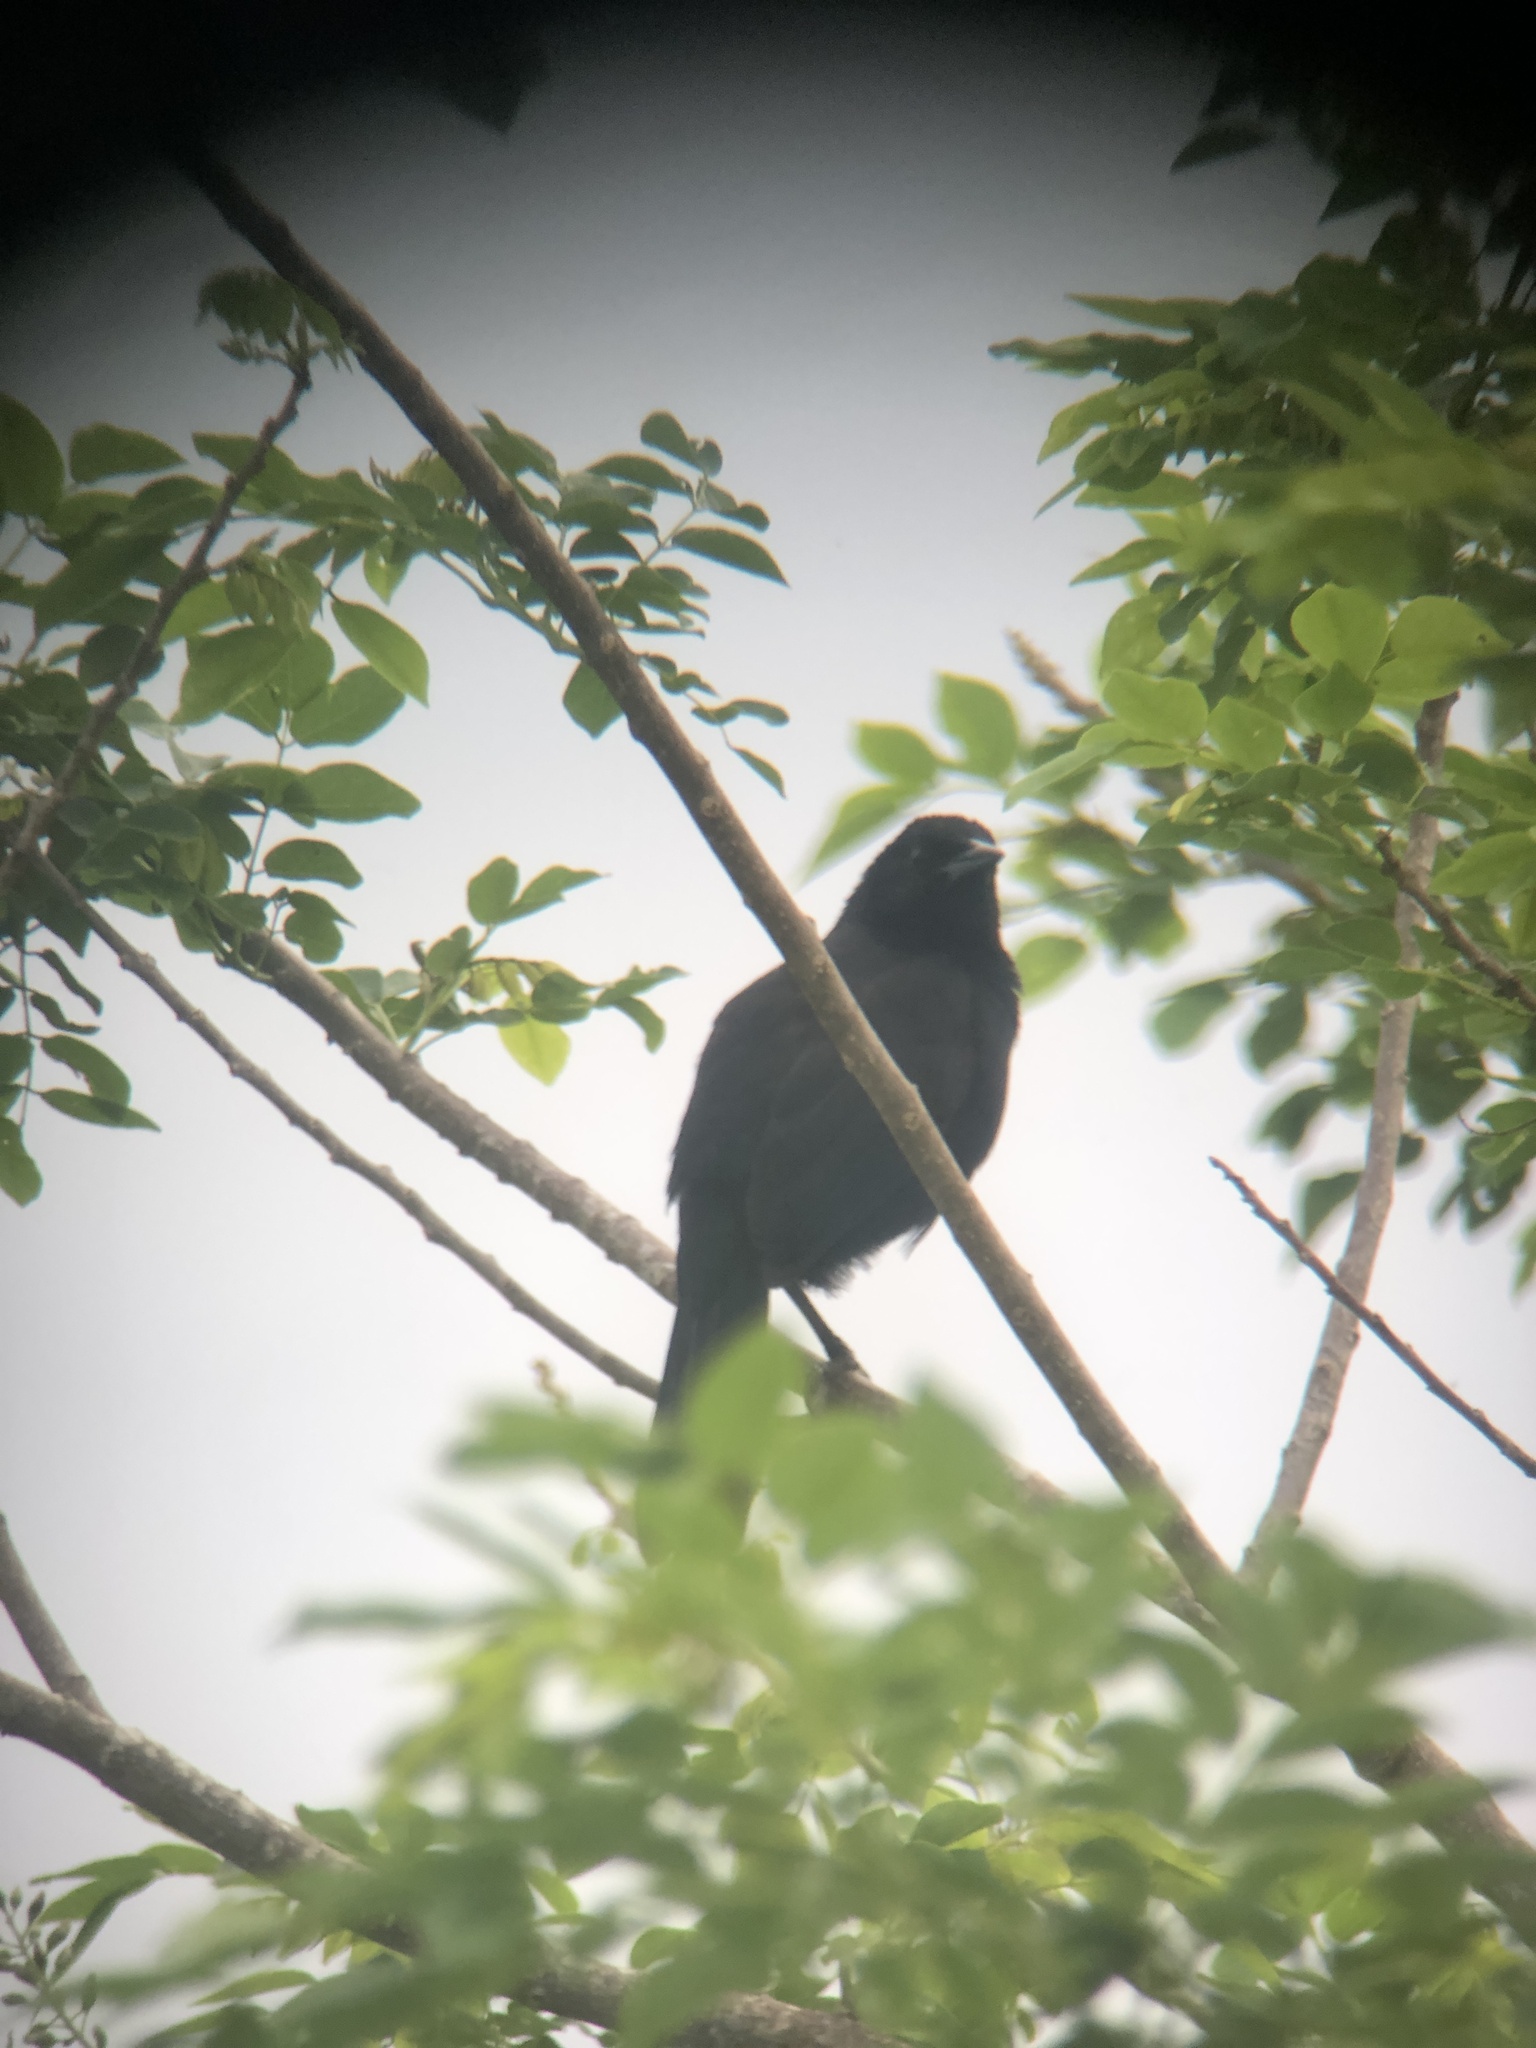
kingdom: Animalia
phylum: Chordata
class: Aves
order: Passeriformes
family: Icteridae
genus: Dives
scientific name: Dives dives
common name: Melodious blackbird
